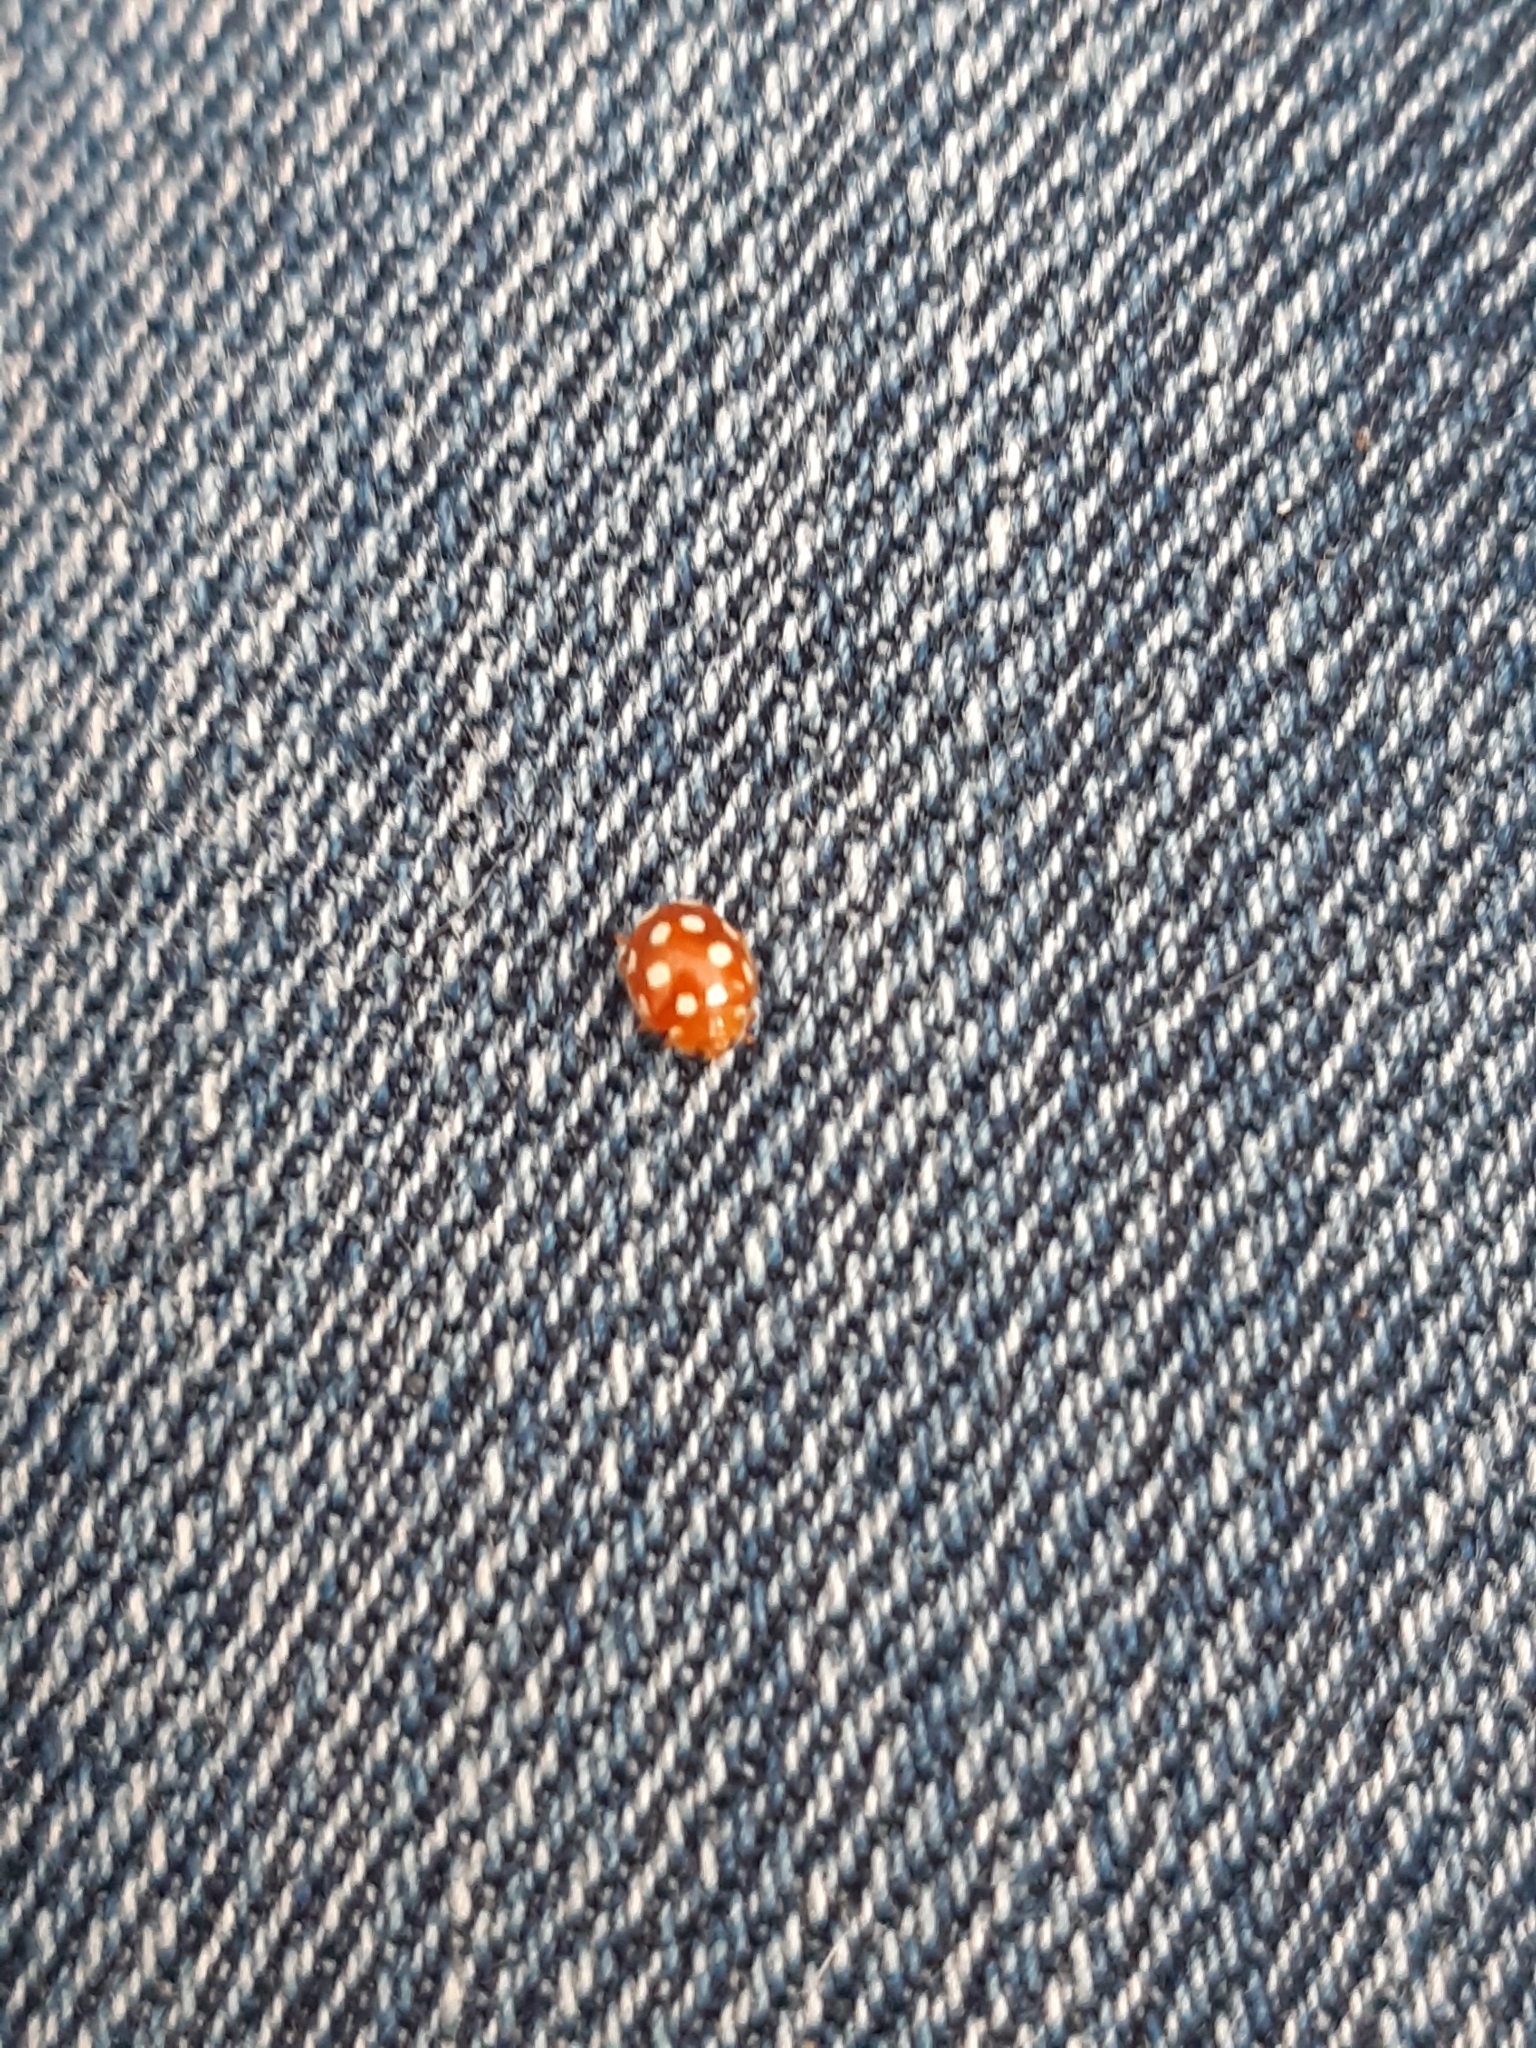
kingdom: Animalia
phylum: Arthropoda
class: Insecta
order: Coleoptera
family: Coccinellidae
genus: Vibidia
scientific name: Vibidia duodecimguttata
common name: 12-spot ladybird
